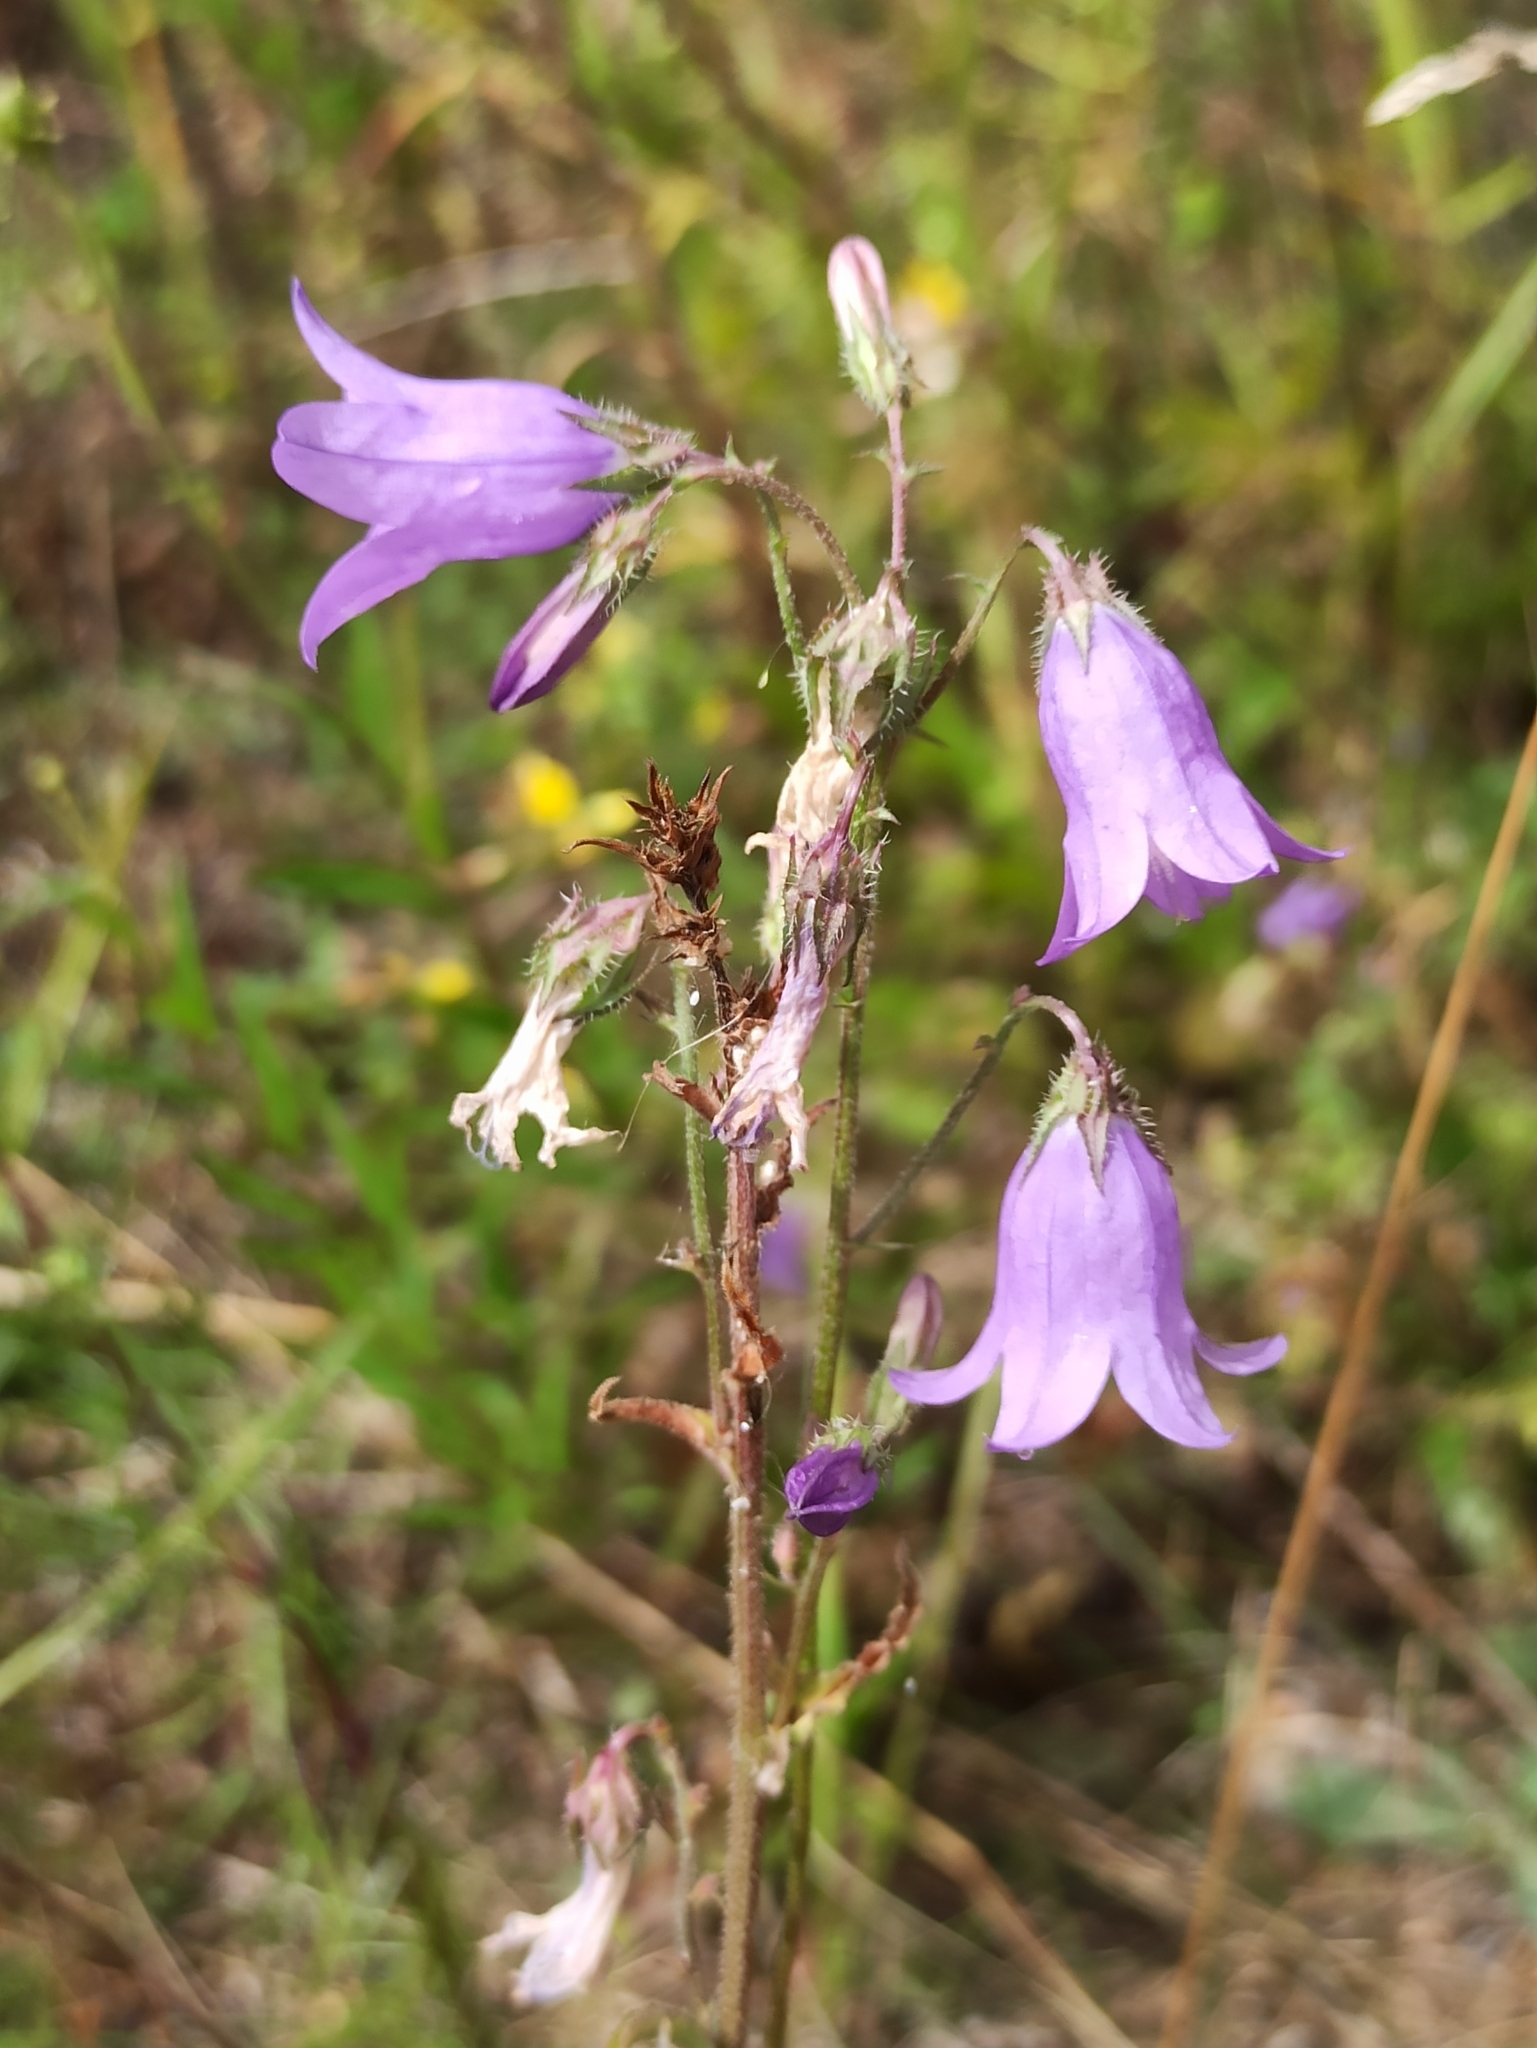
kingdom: Plantae
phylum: Tracheophyta
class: Magnoliopsida
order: Asterales
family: Campanulaceae
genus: Campanula
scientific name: Campanula sibirica
